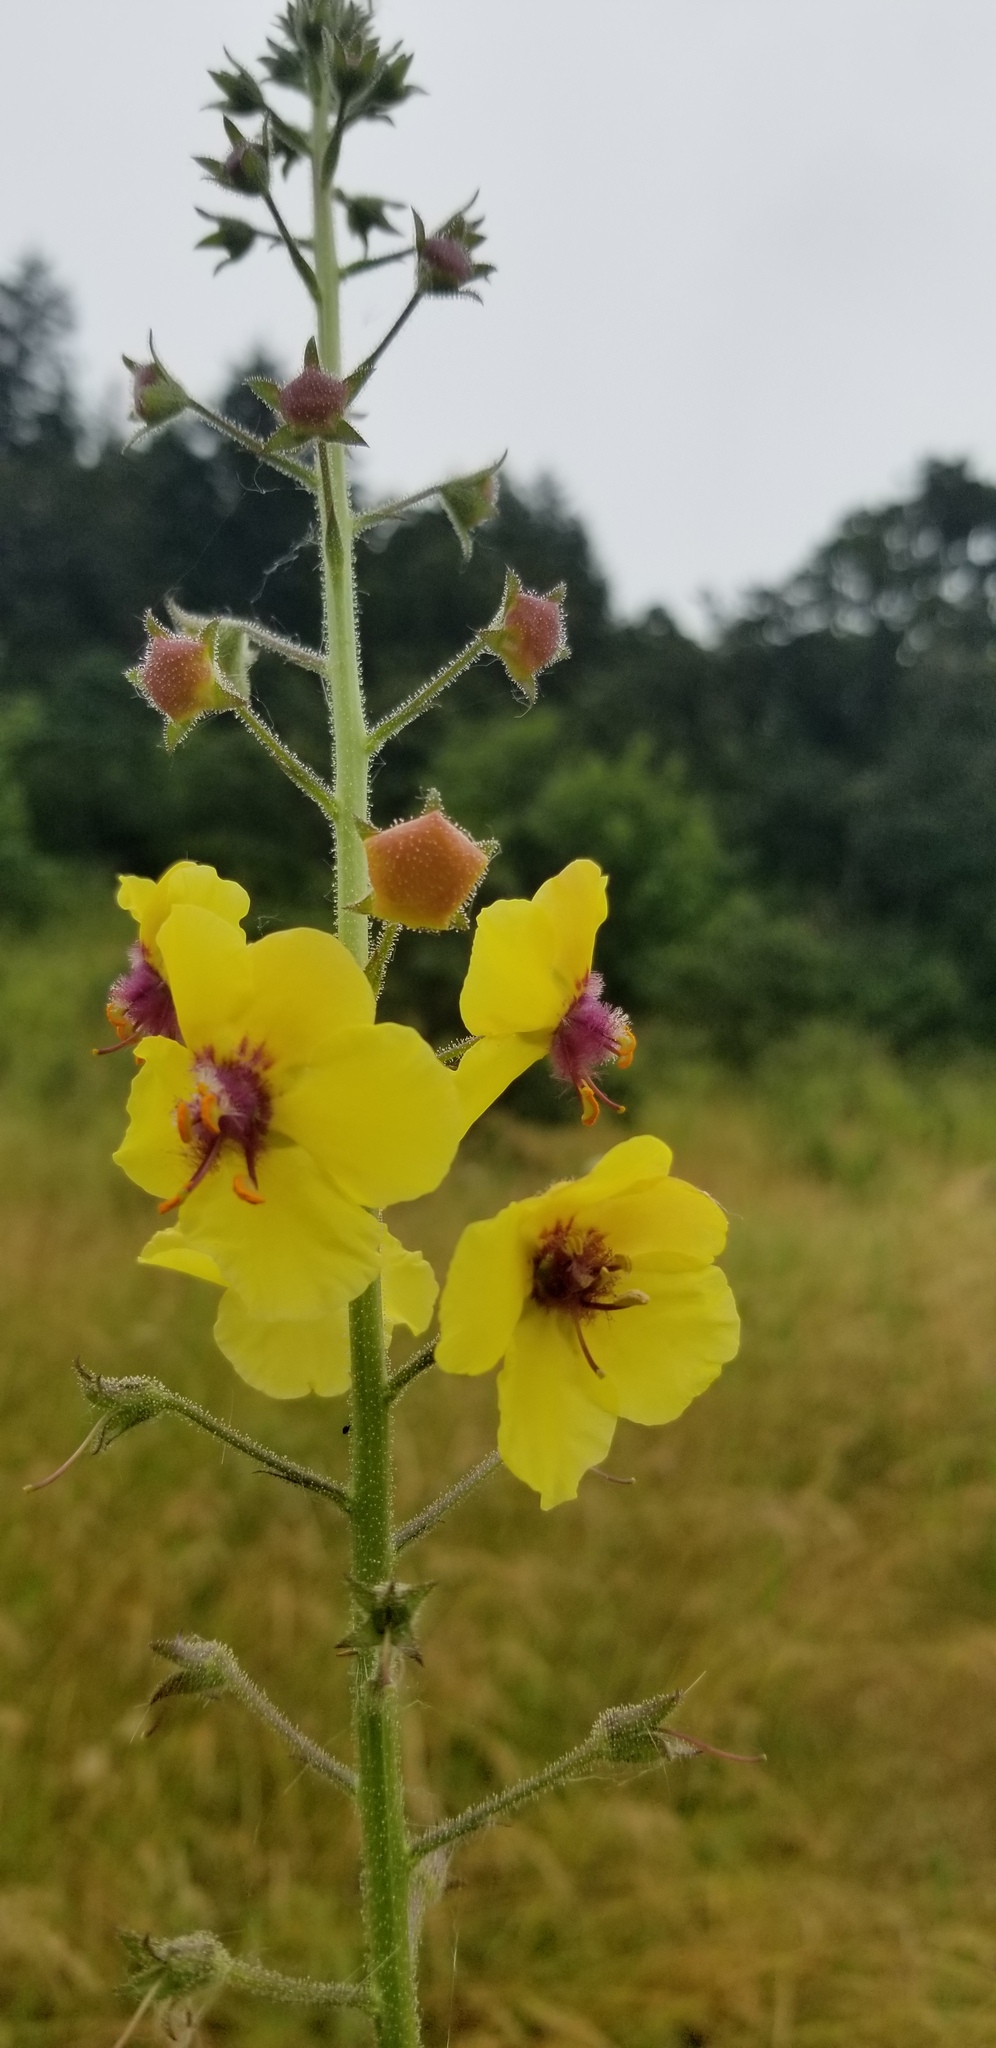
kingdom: Plantae
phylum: Tracheophyta
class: Magnoliopsida
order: Lamiales
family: Scrophulariaceae
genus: Verbascum
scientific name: Verbascum blattaria
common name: Moth mullein
